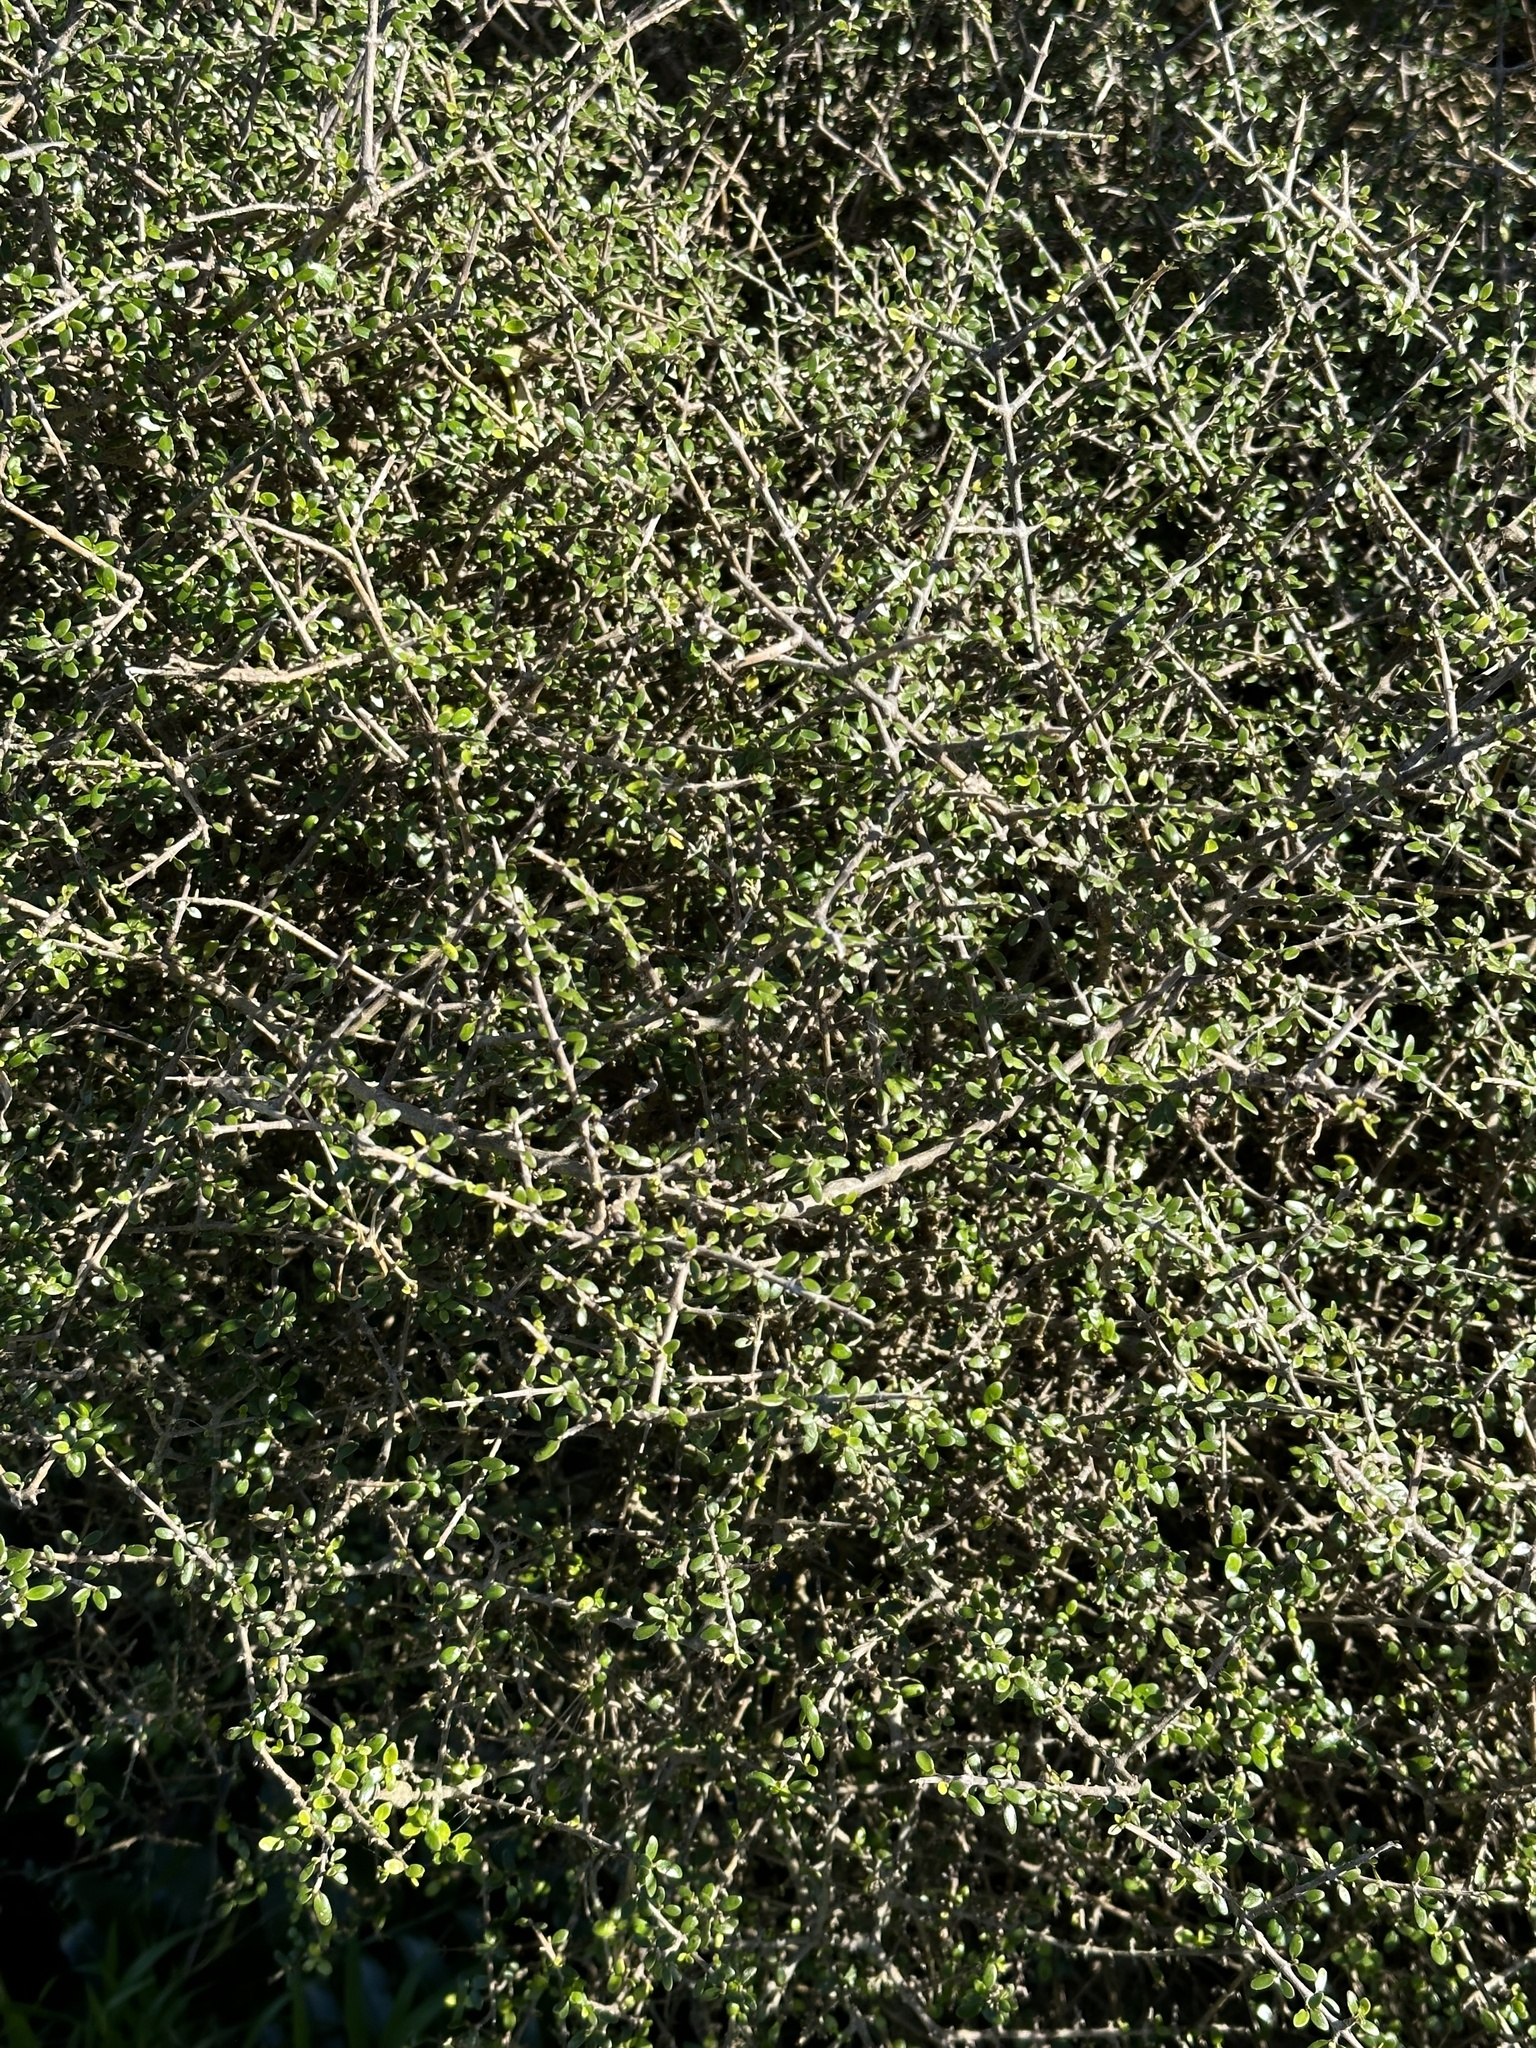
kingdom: Plantae
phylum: Tracheophyta
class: Magnoliopsida
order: Gentianales
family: Rubiaceae
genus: Coprosma
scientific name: Coprosma propinqua
